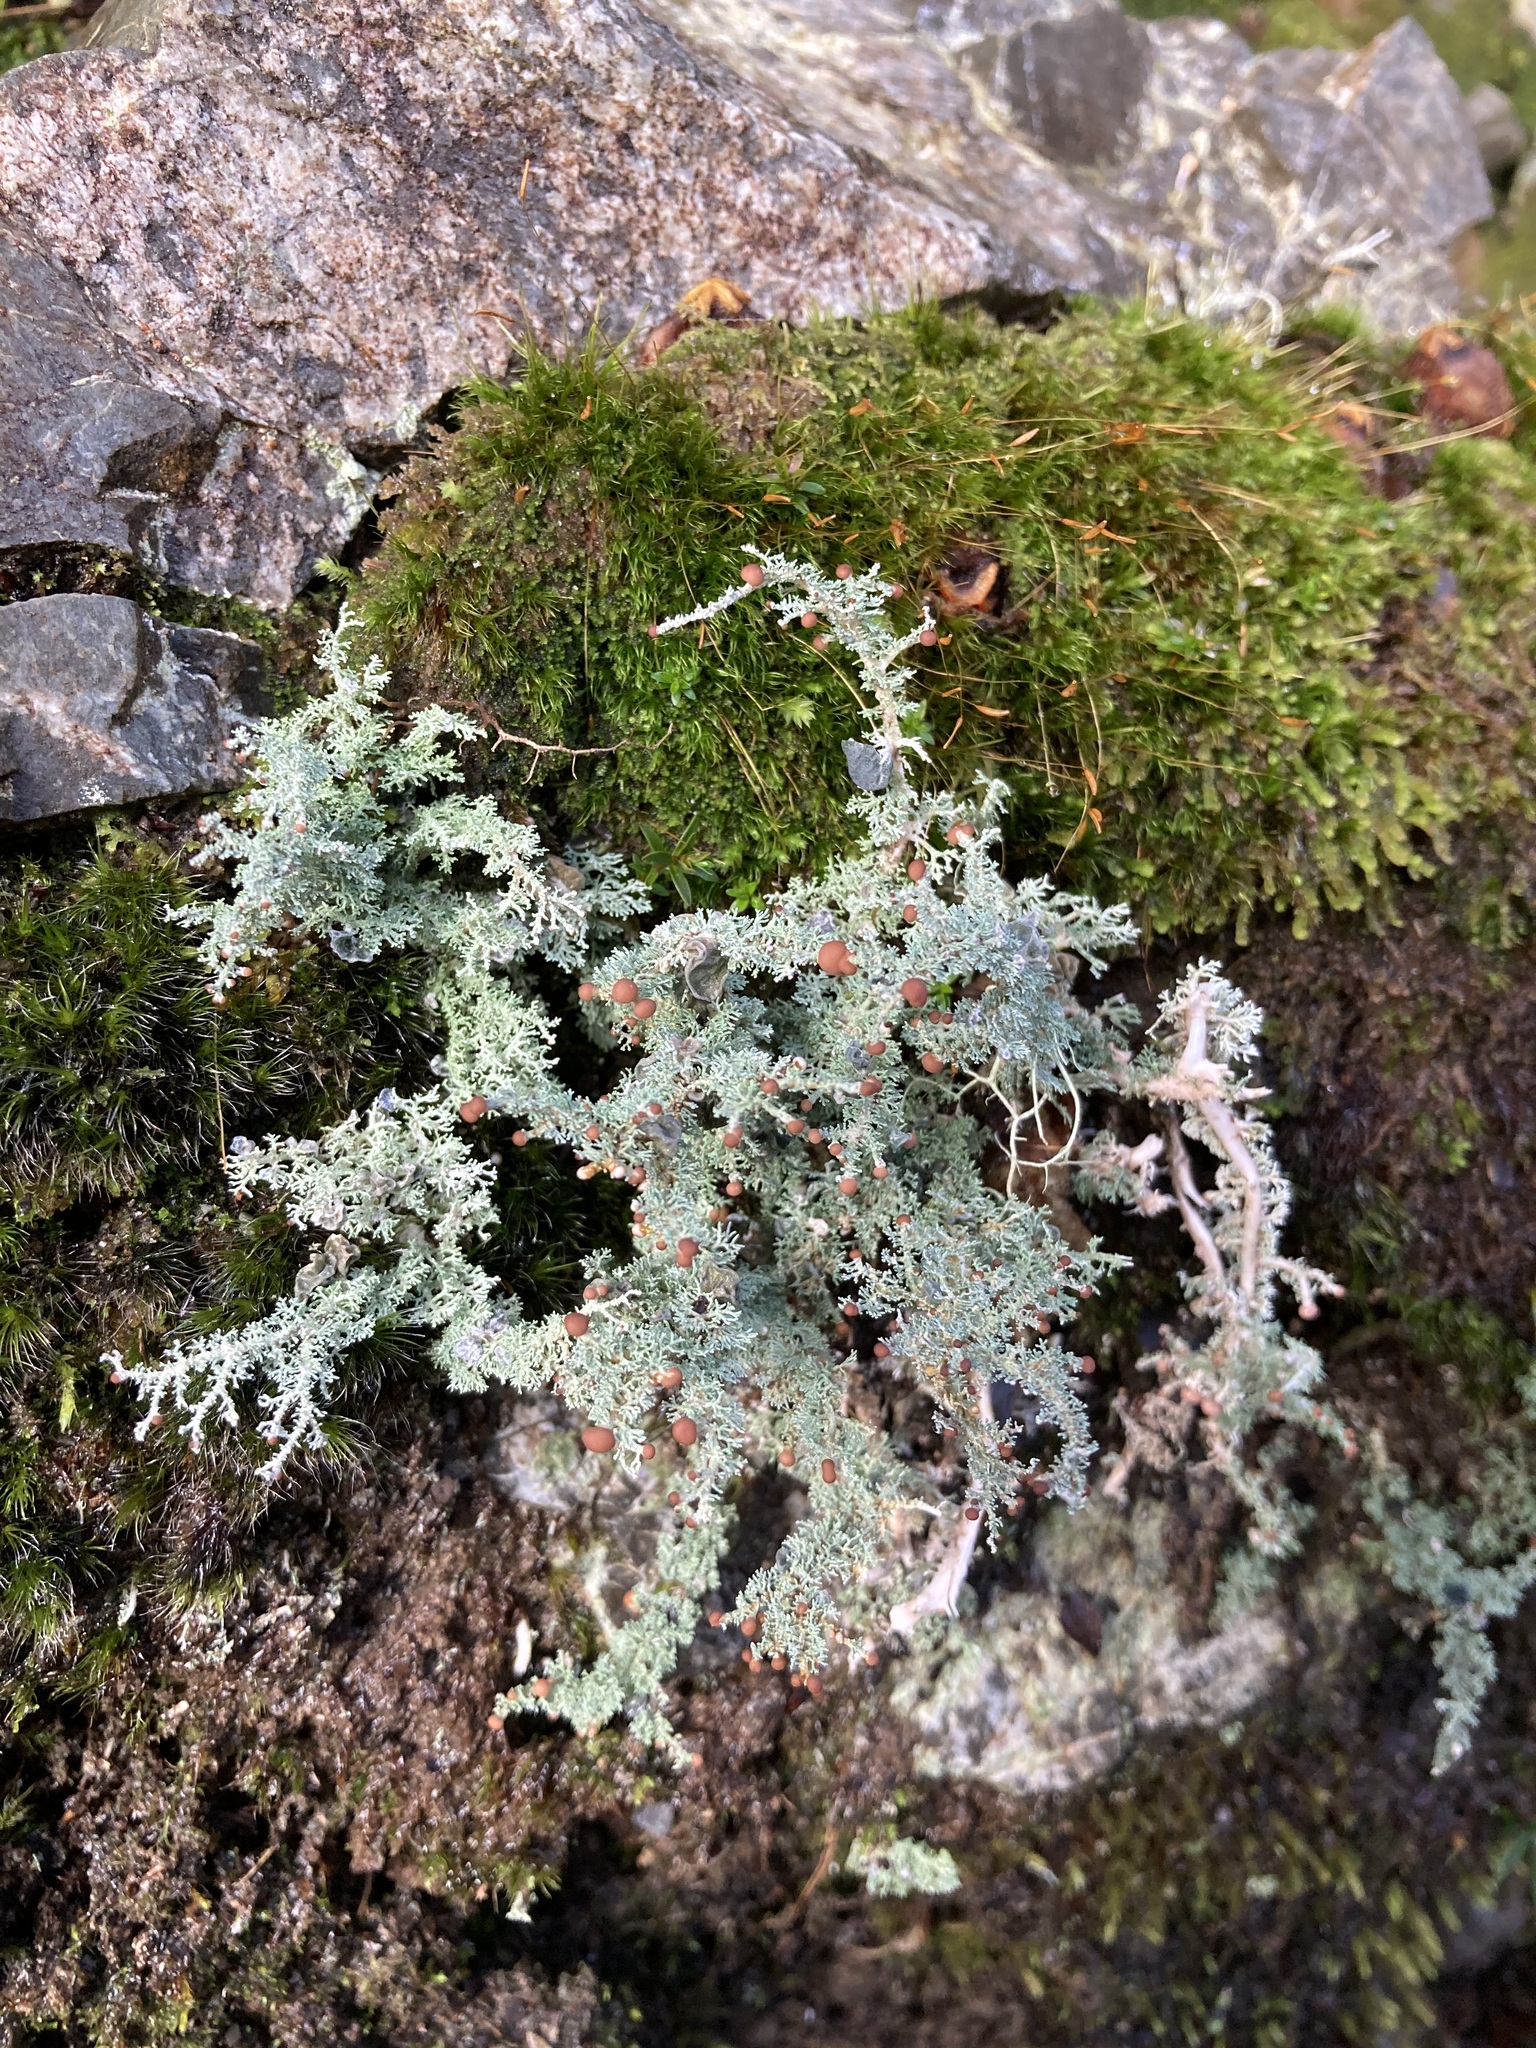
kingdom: Fungi
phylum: Ascomycota
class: Lecanoromycetes
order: Lecanorales
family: Stereocaulaceae
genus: Stereocaulon
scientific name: Stereocaulon ramulosum
